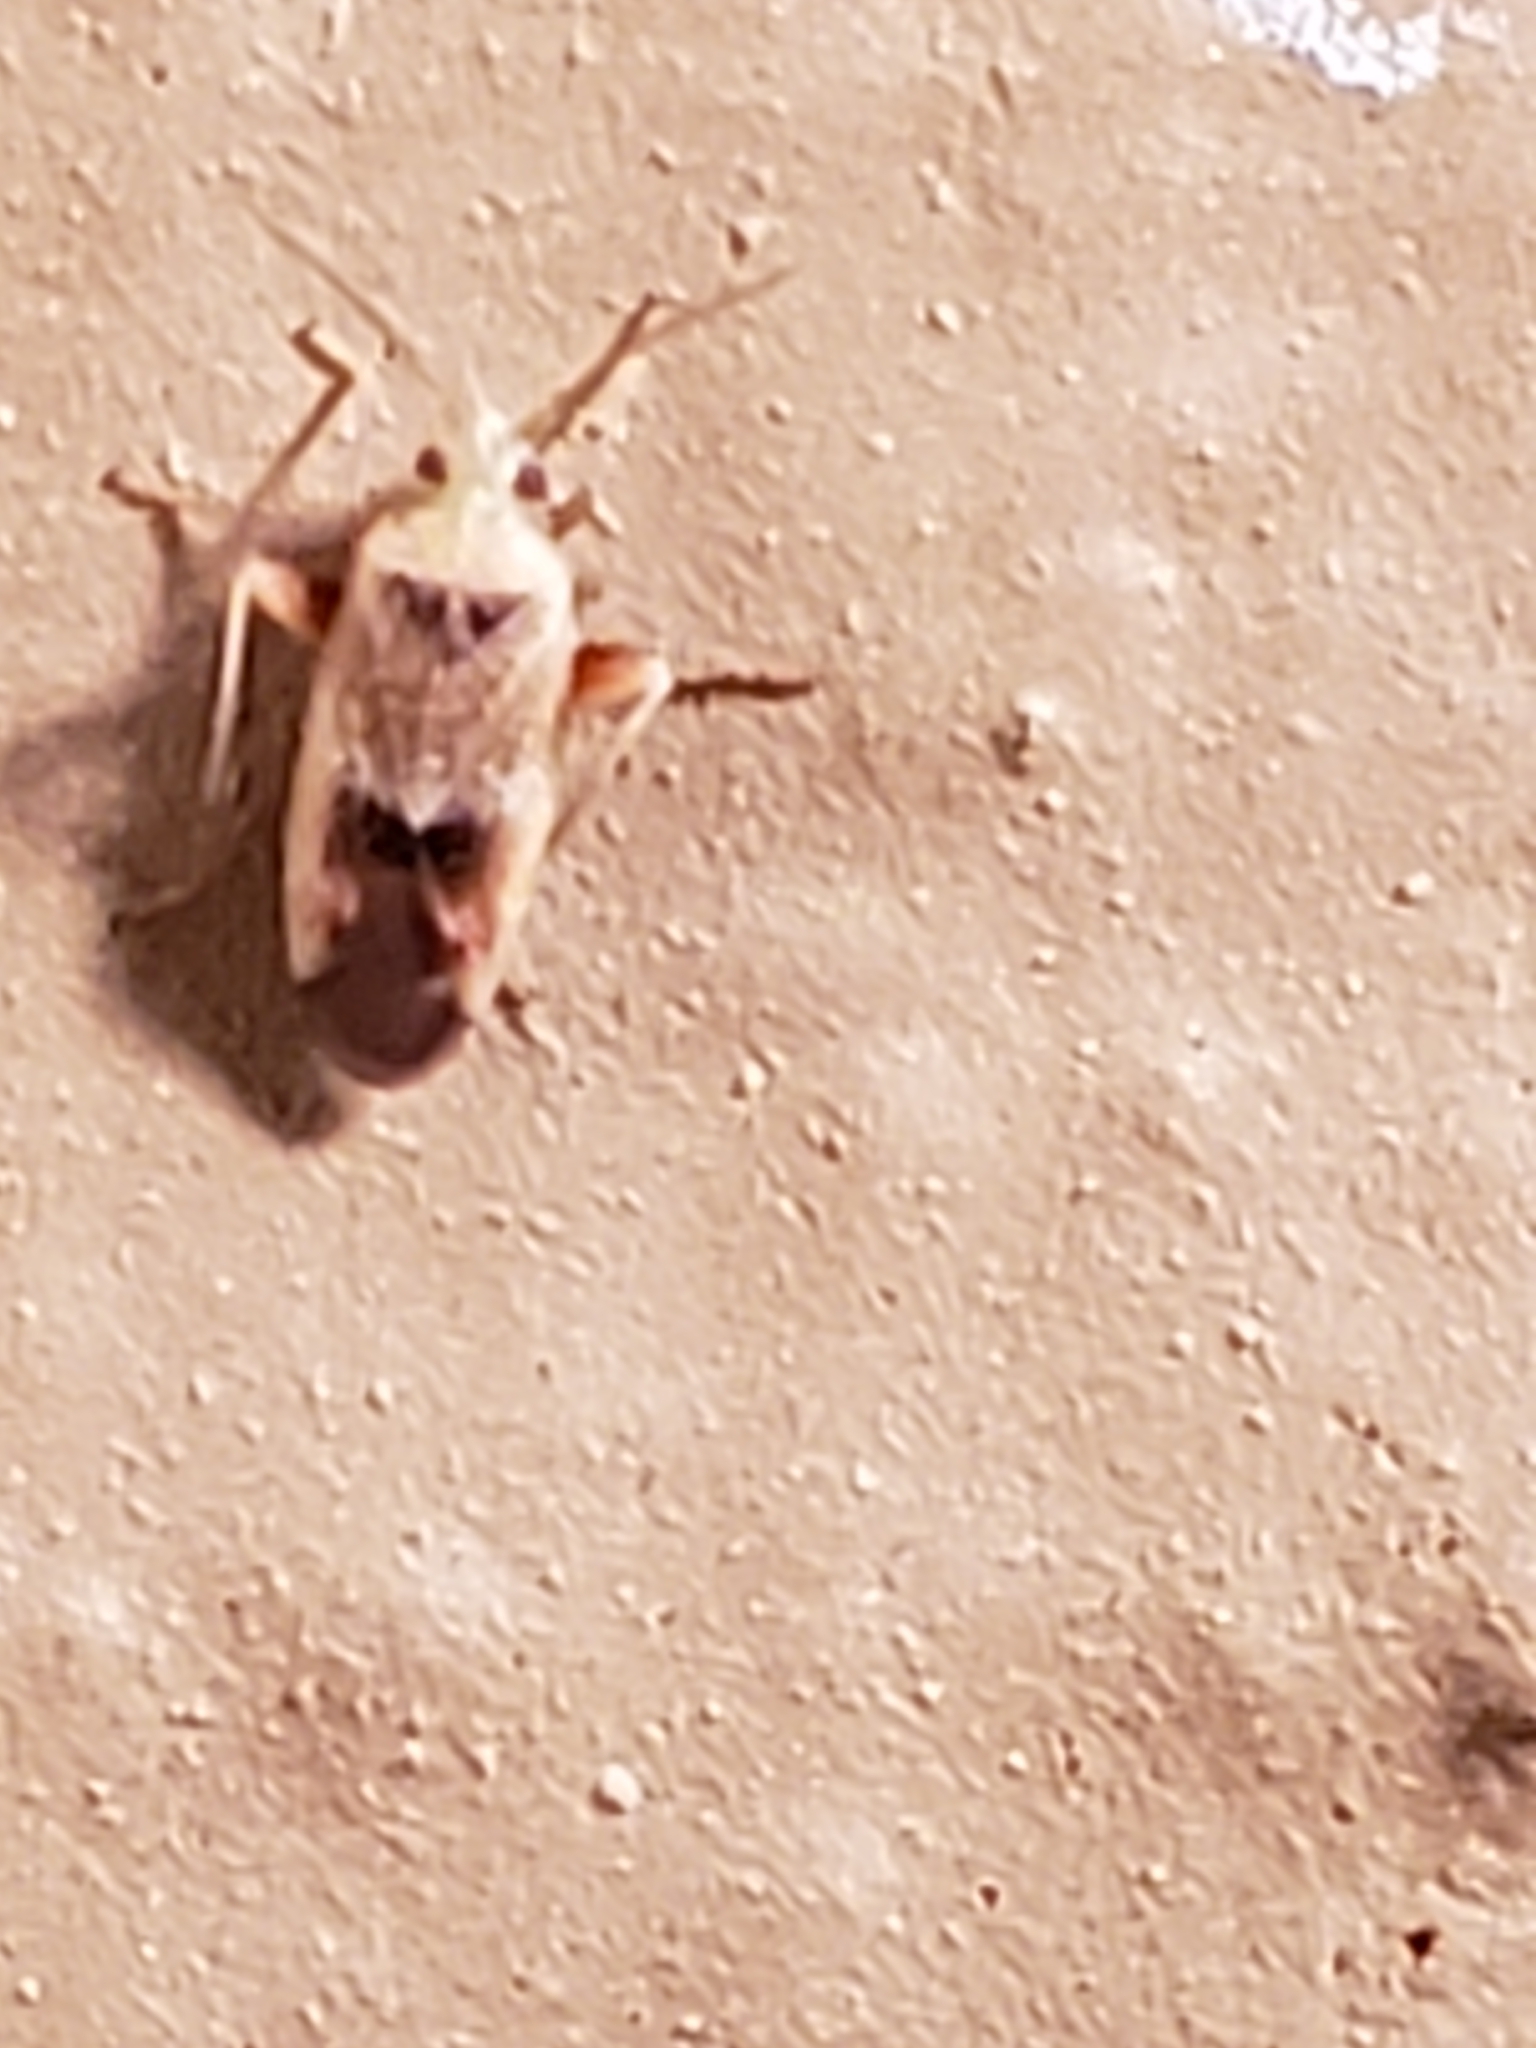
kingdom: Animalia
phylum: Arthropoda
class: Insecta
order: Hemiptera
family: Miridae
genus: Parthenicus
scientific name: Parthenicus juniperi
